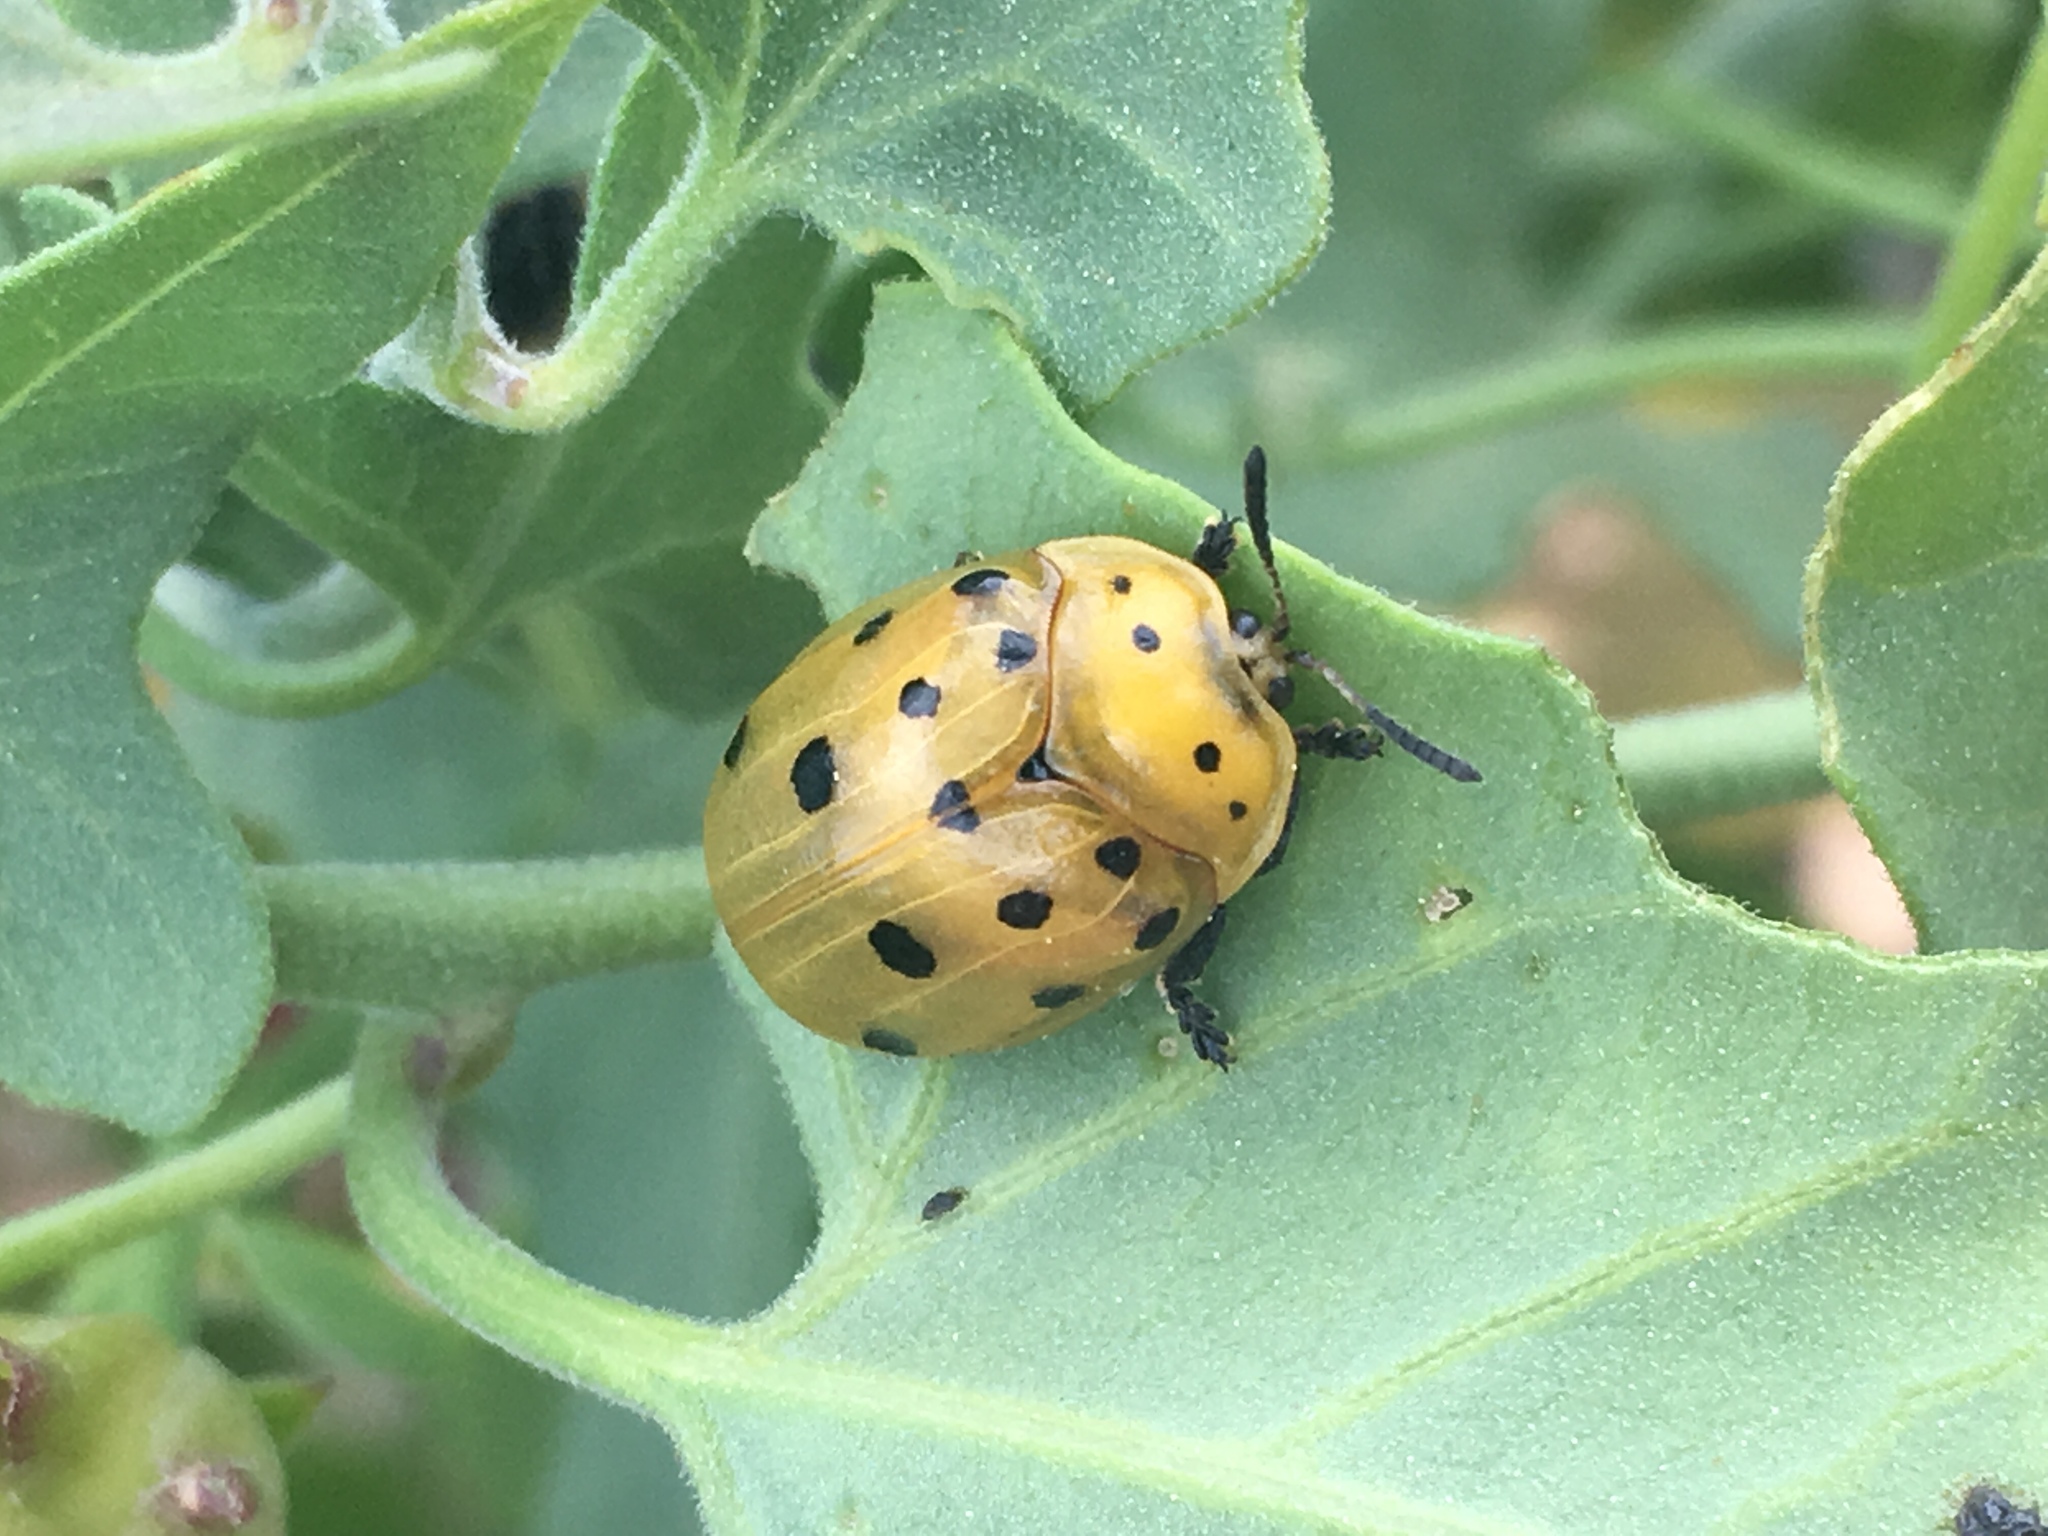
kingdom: Animalia
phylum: Arthropoda
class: Insecta
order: Coleoptera
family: Chrysomelidae
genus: Chelymorpha
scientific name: Chelymorpha cassidea
